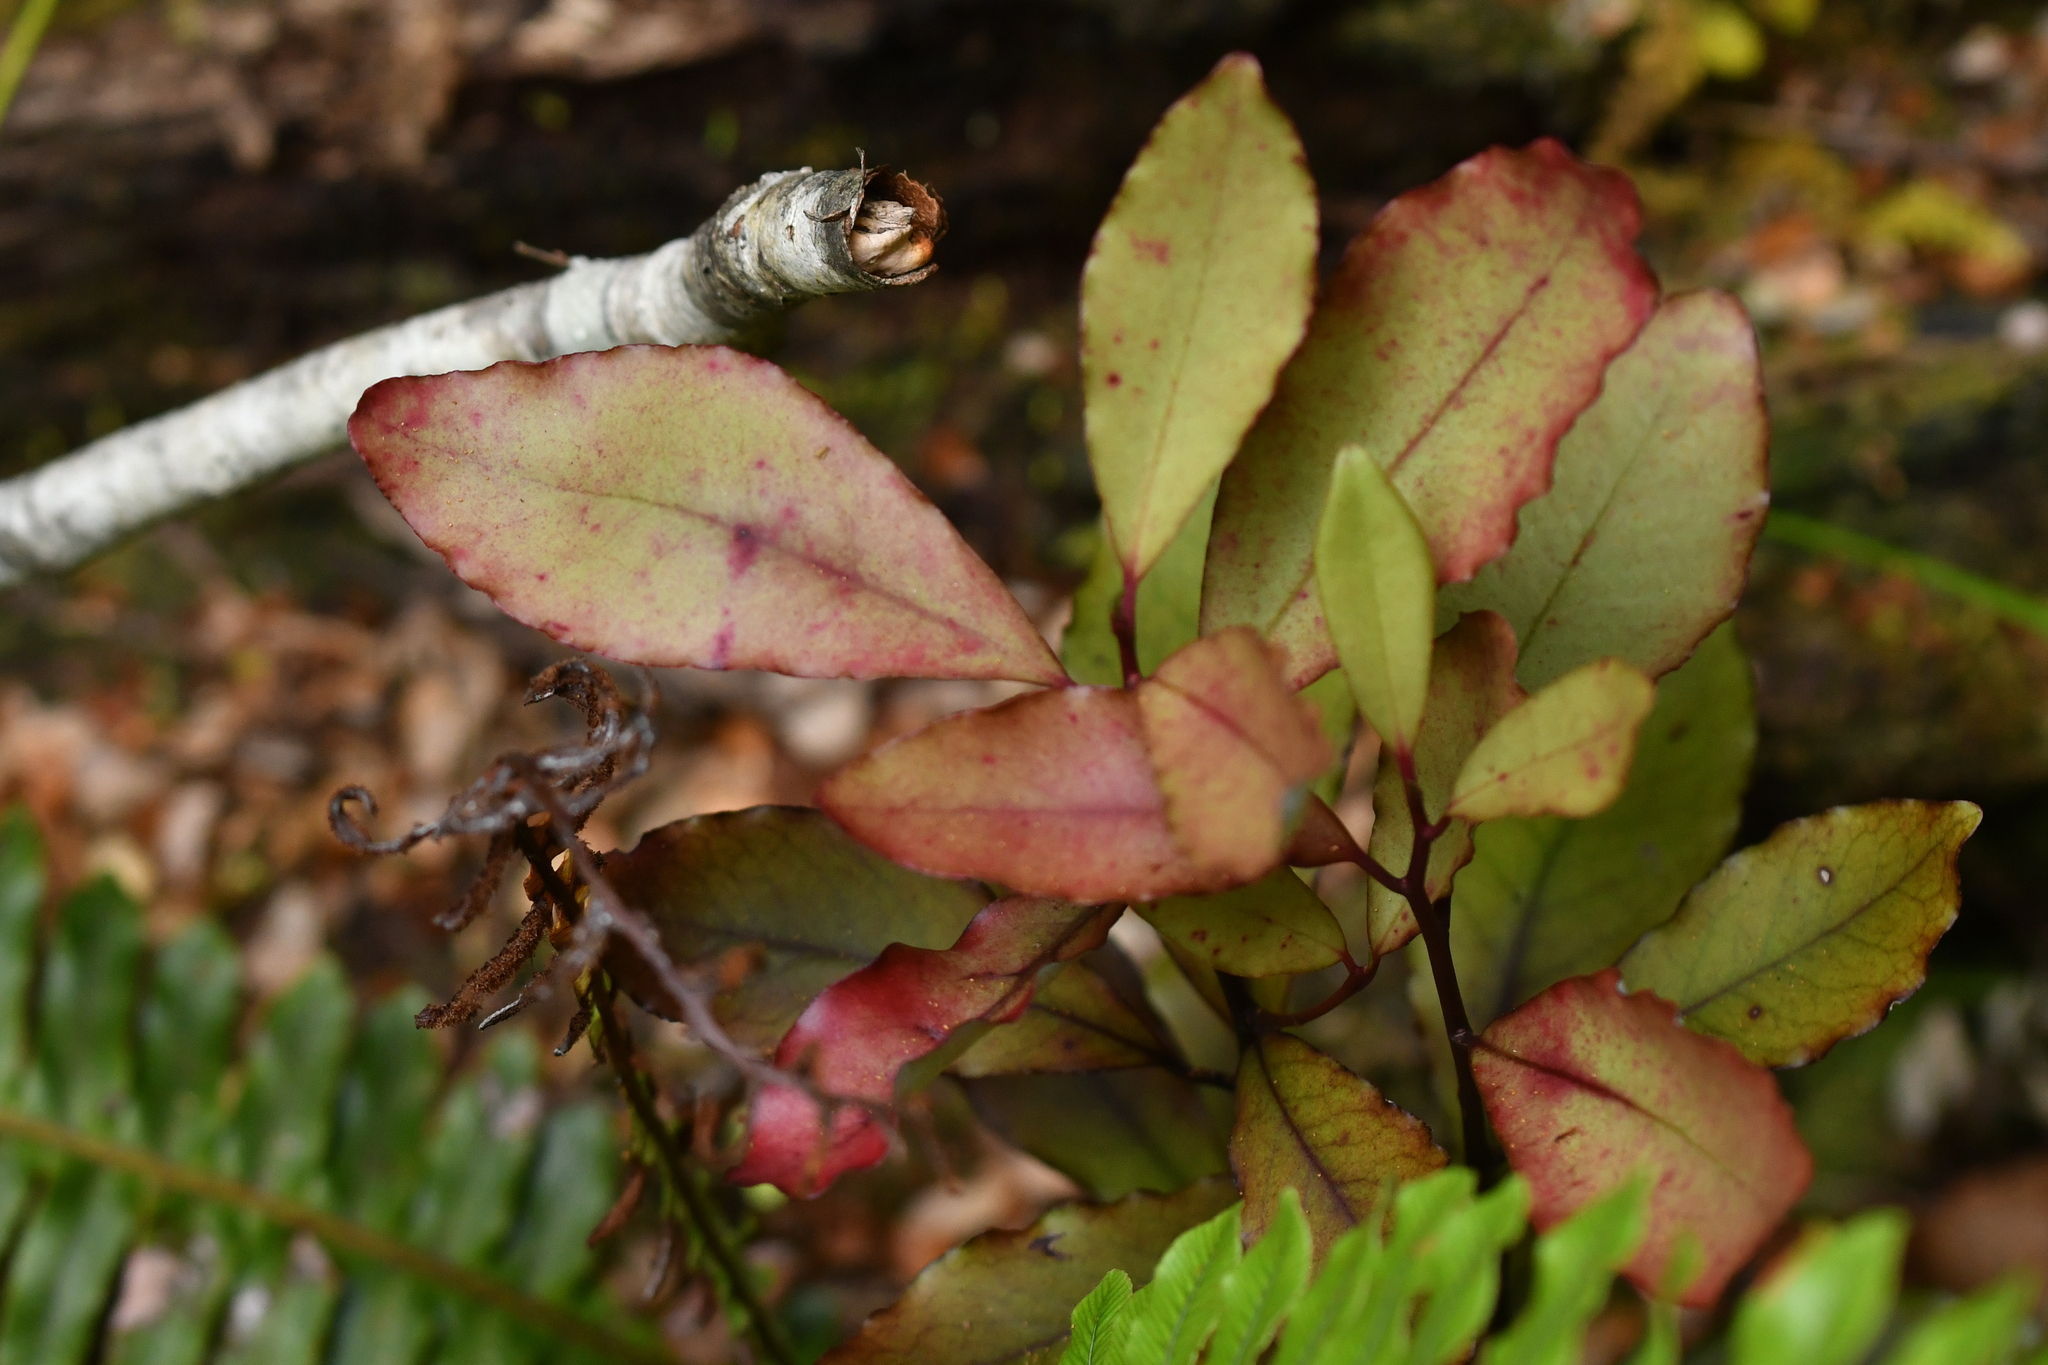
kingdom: Plantae
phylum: Tracheophyta
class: Magnoliopsida
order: Canellales
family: Winteraceae
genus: Pseudowintera
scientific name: Pseudowintera colorata
